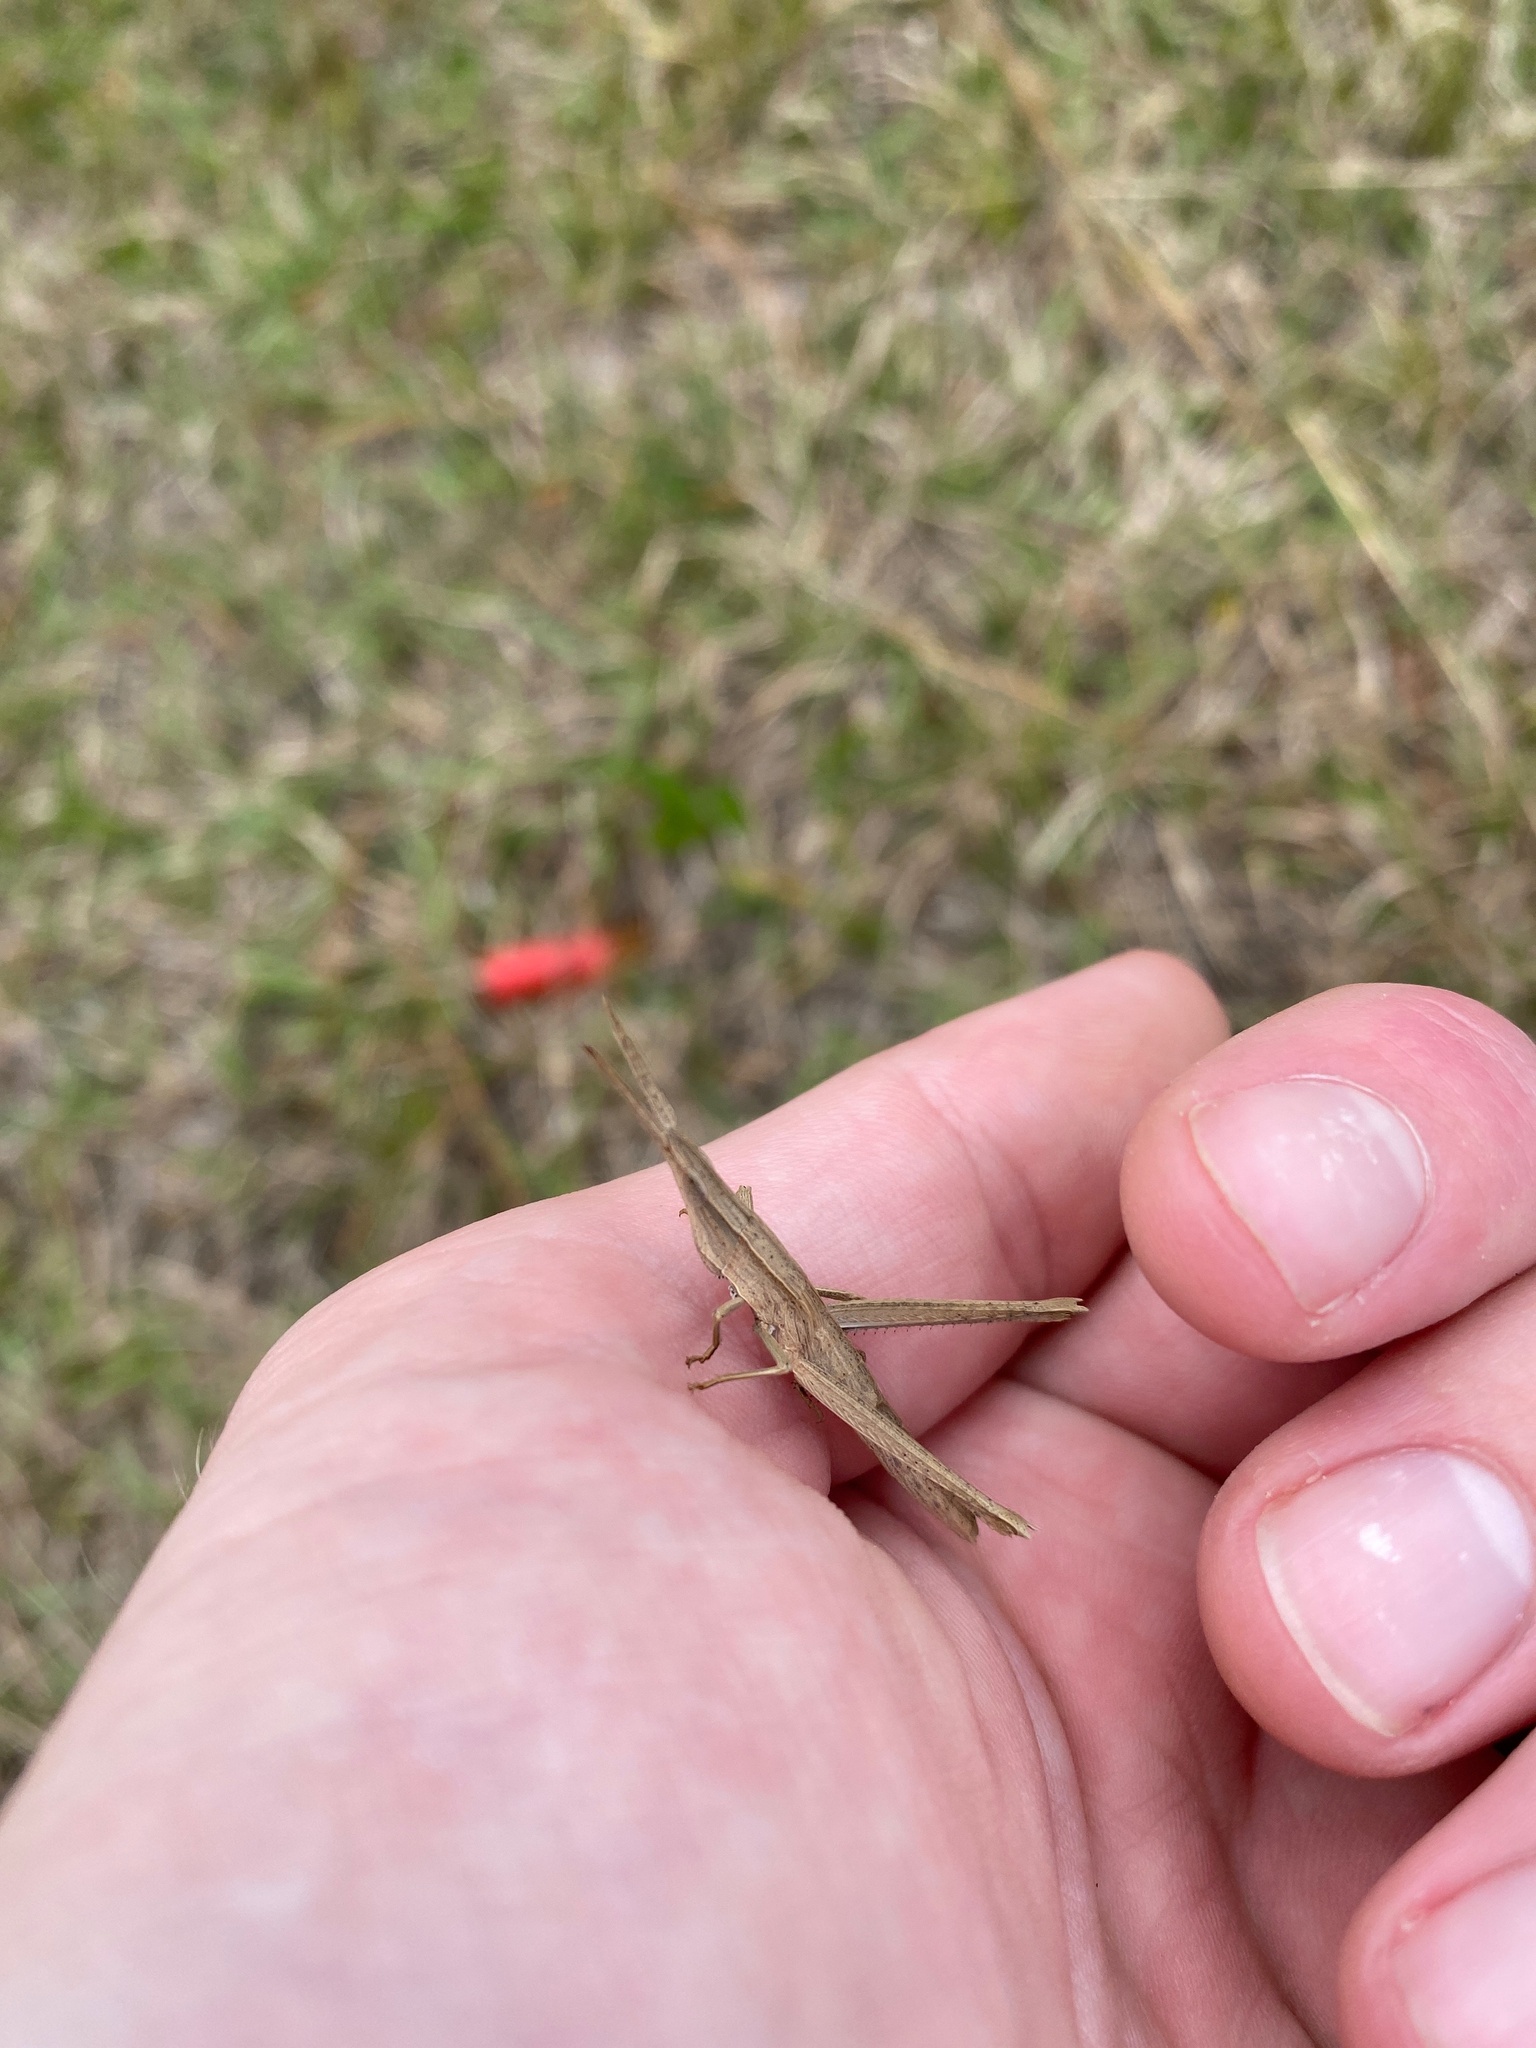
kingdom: Animalia
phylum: Arthropoda
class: Insecta
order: Orthoptera
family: Acrididae
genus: Achurum
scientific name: Achurum carinatum
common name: Long-headed toothpick grasshopper
